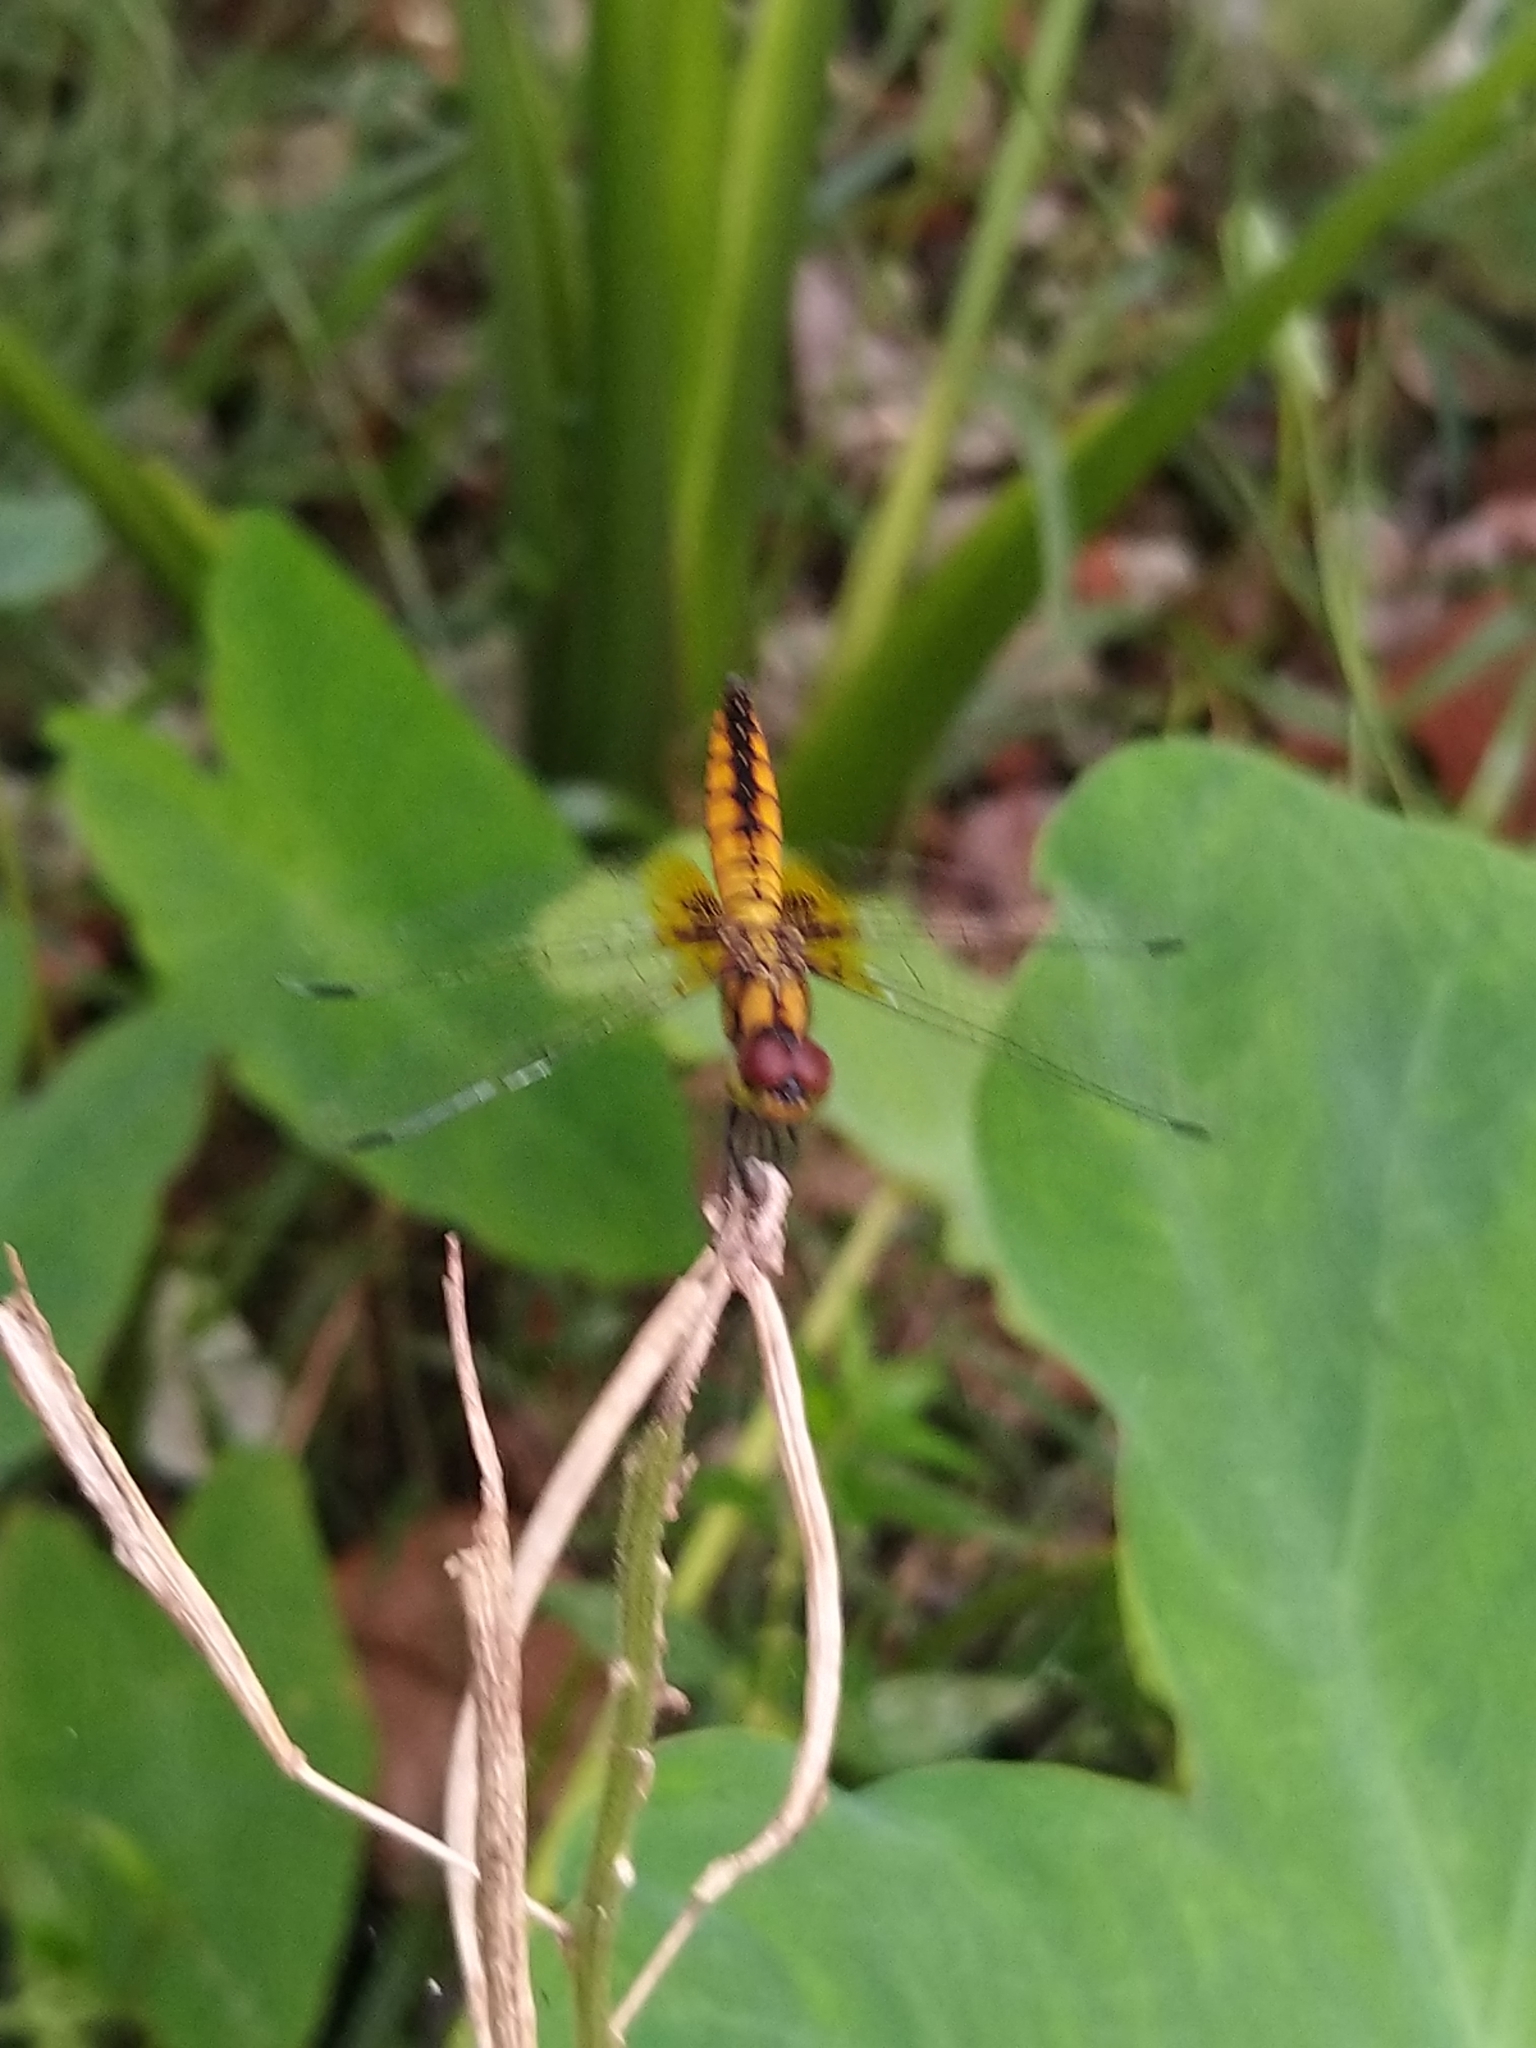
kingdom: Animalia
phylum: Arthropoda
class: Insecta
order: Odonata
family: Libellulidae
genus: Aethriamanta
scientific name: Aethriamanta brevipennis
